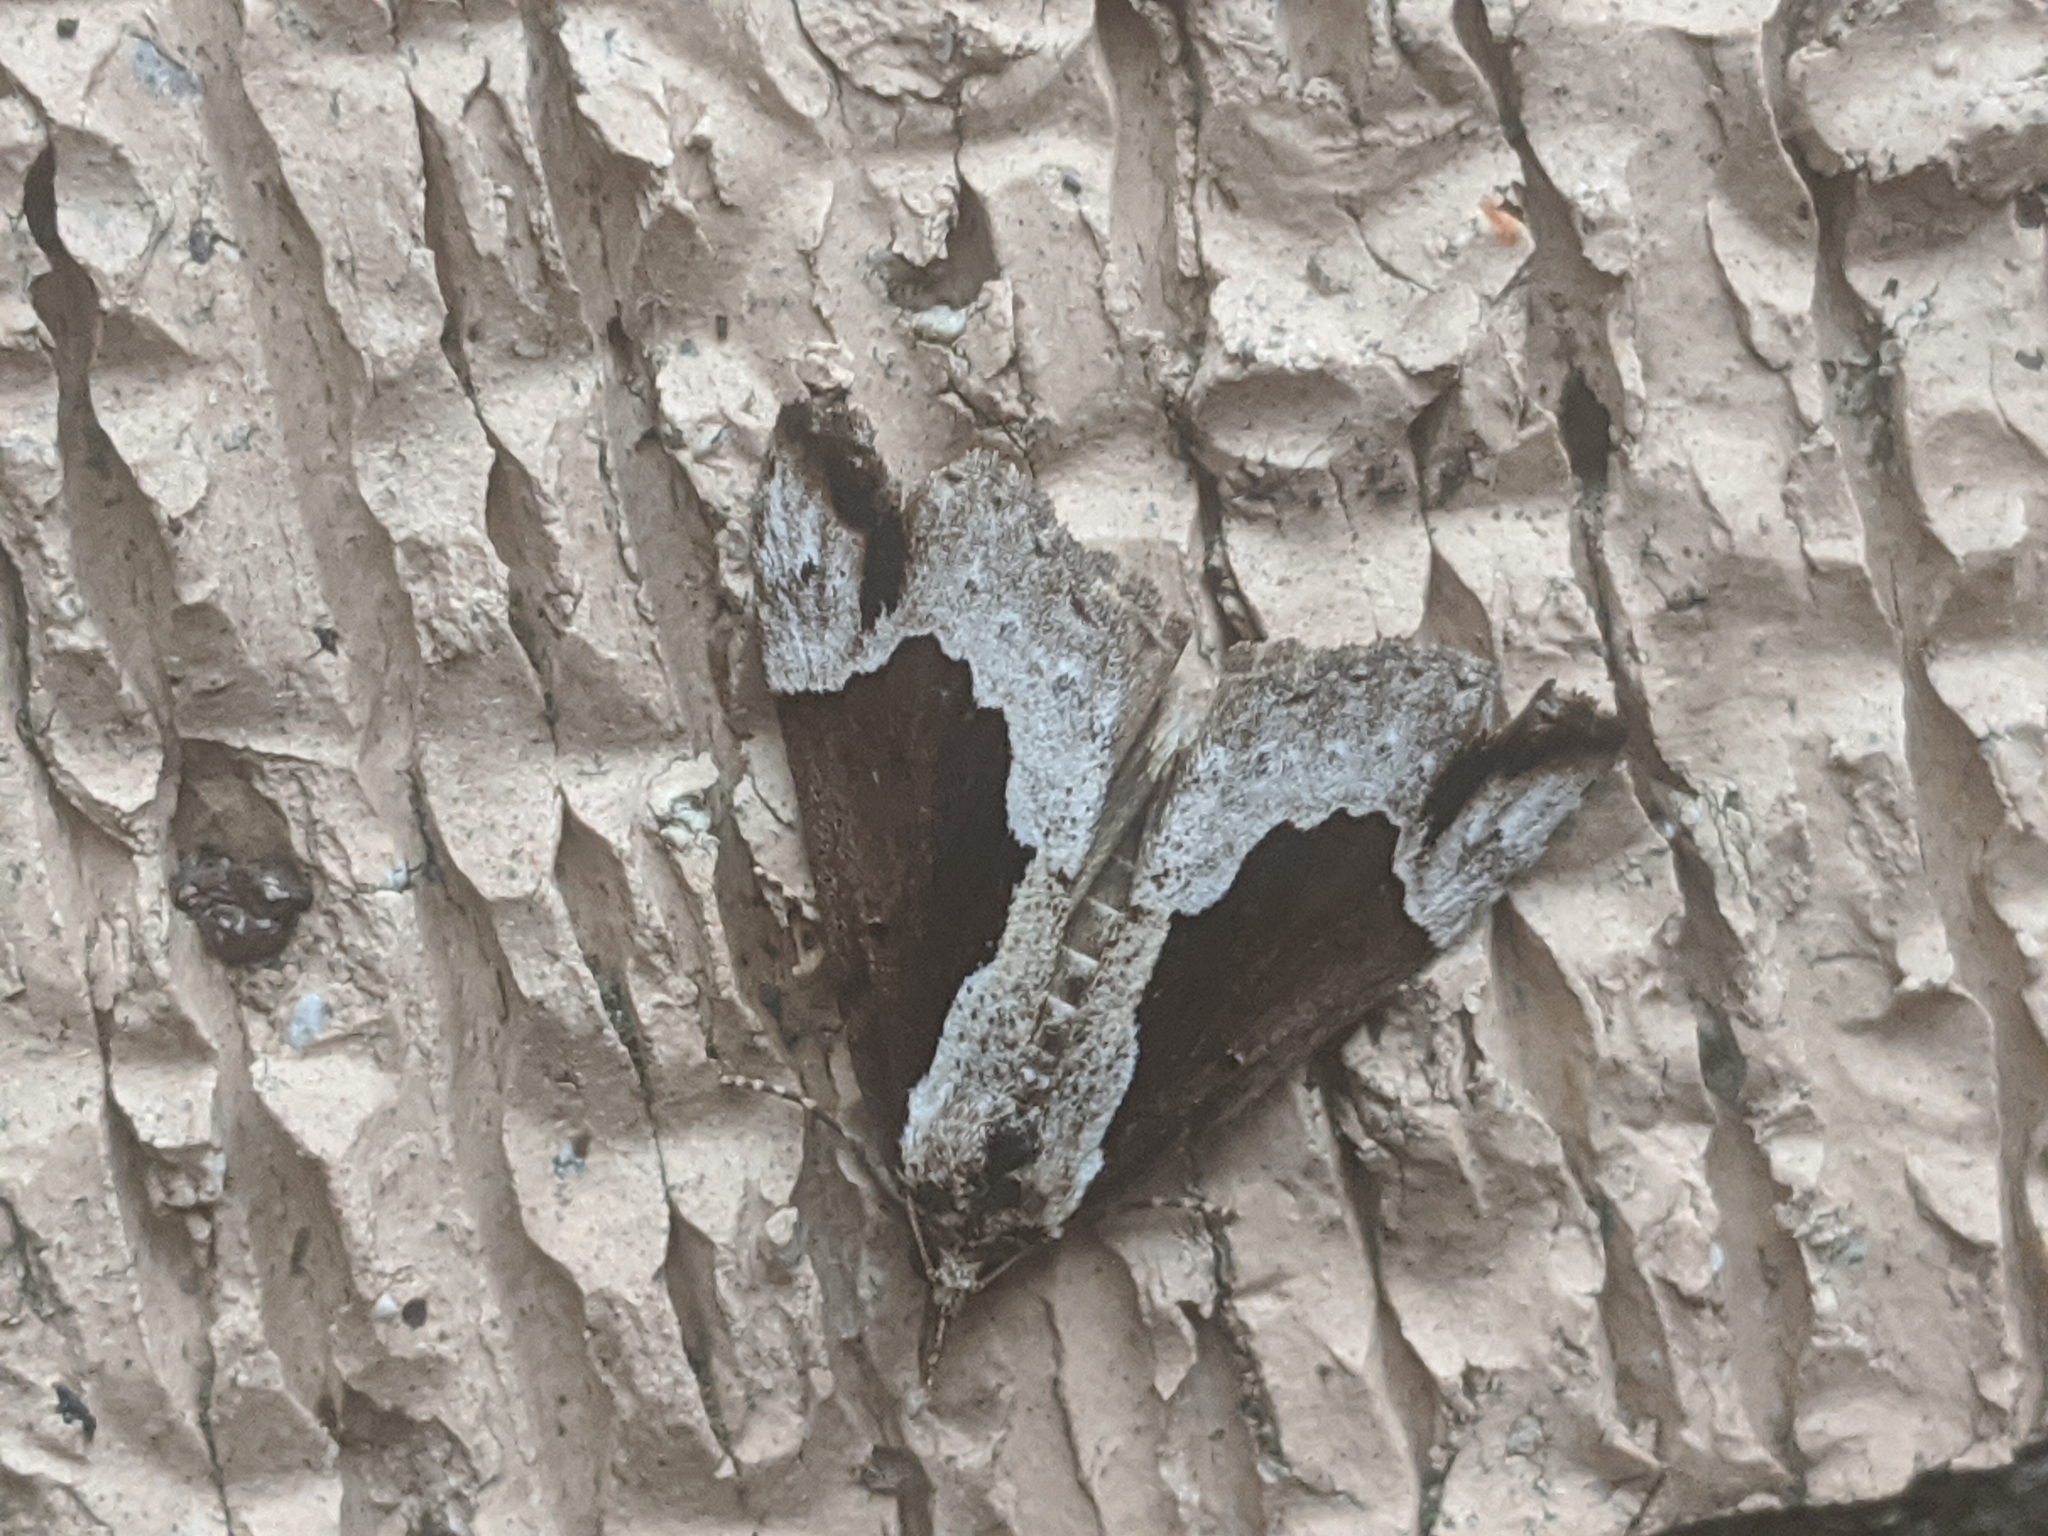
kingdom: Animalia
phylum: Arthropoda
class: Insecta
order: Lepidoptera
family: Erebidae
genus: Hypena
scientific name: Hypena baltimoralis
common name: Baltimore snout
